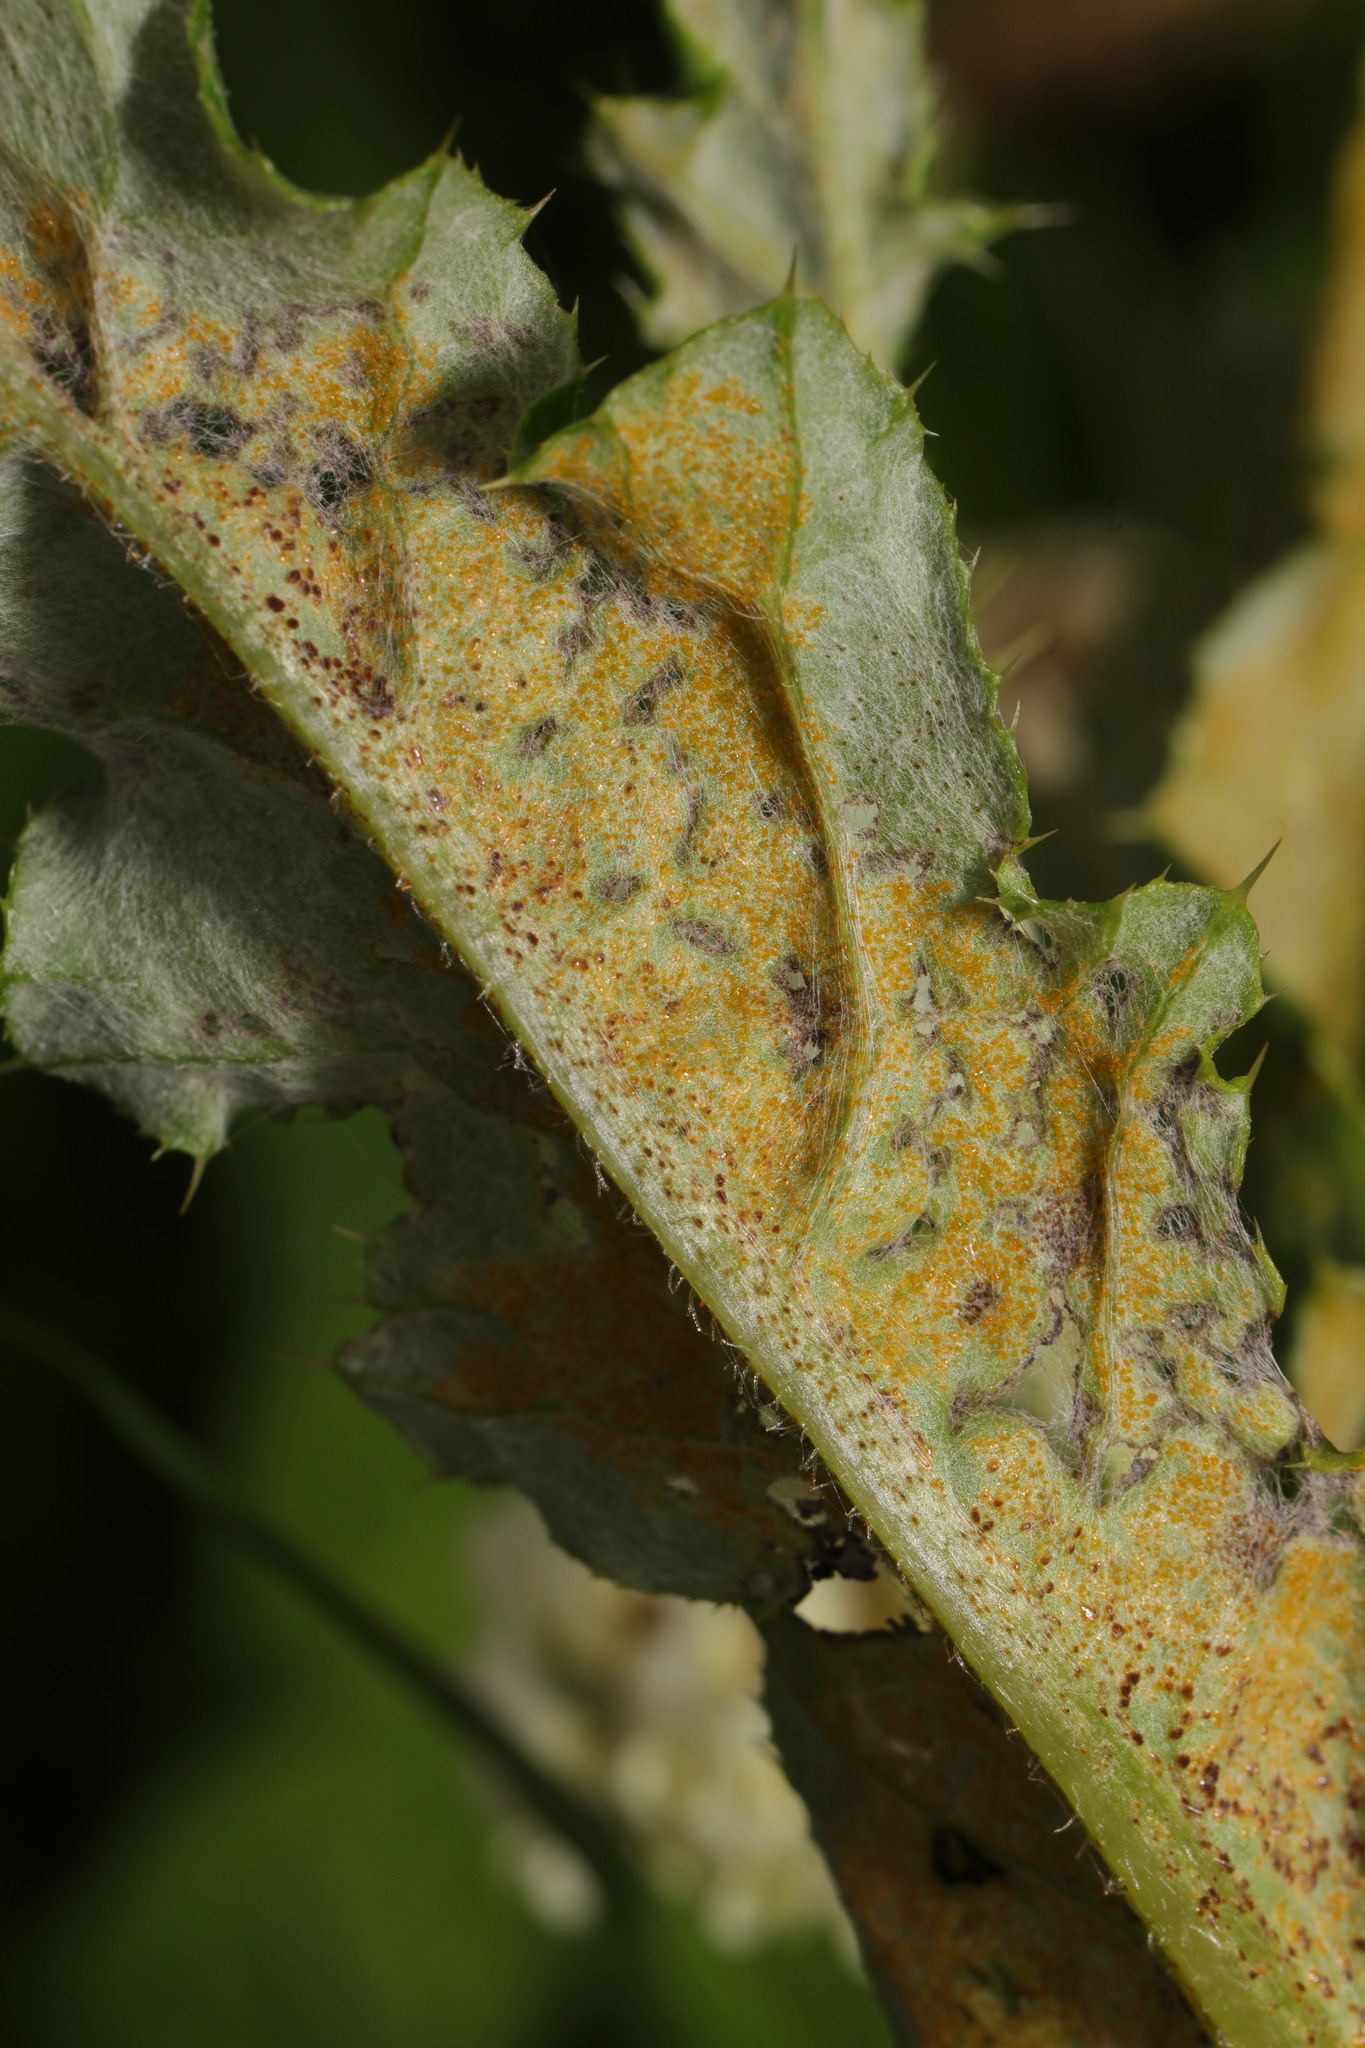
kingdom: Fungi
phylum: Basidiomycota
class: Pucciniomycetes
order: Pucciniales
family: Pucciniaceae
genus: Puccinia
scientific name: Puccinia suaveolens
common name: Thistle rust
